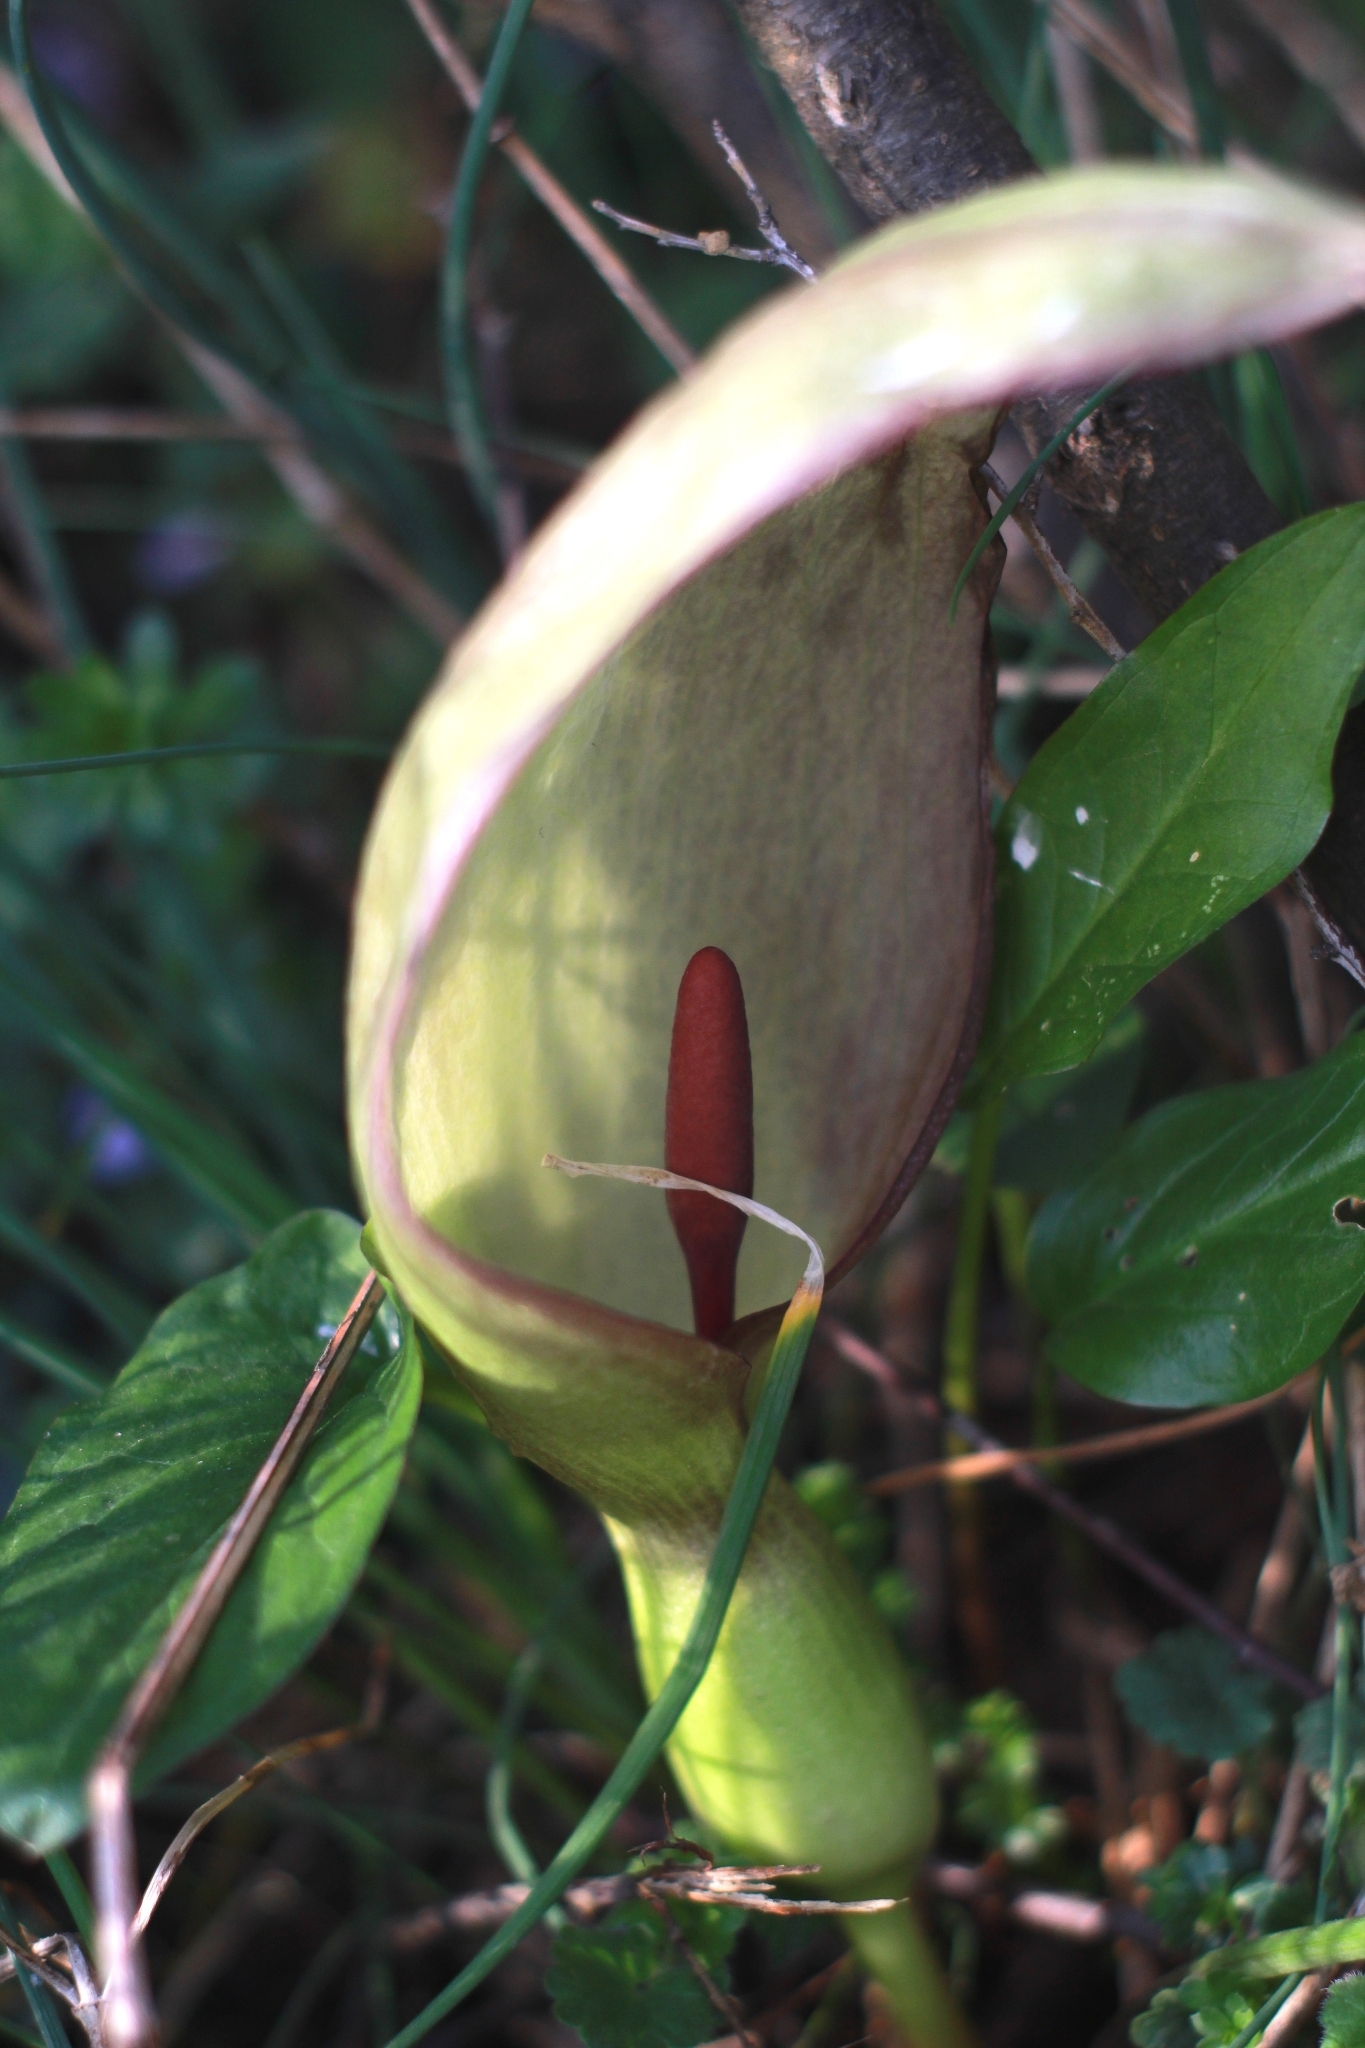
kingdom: Plantae
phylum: Tracheophyta
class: Liliopsida
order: Alismatales
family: Araceae
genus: Arum
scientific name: Arum maculatum
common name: Lords-and-ladies
